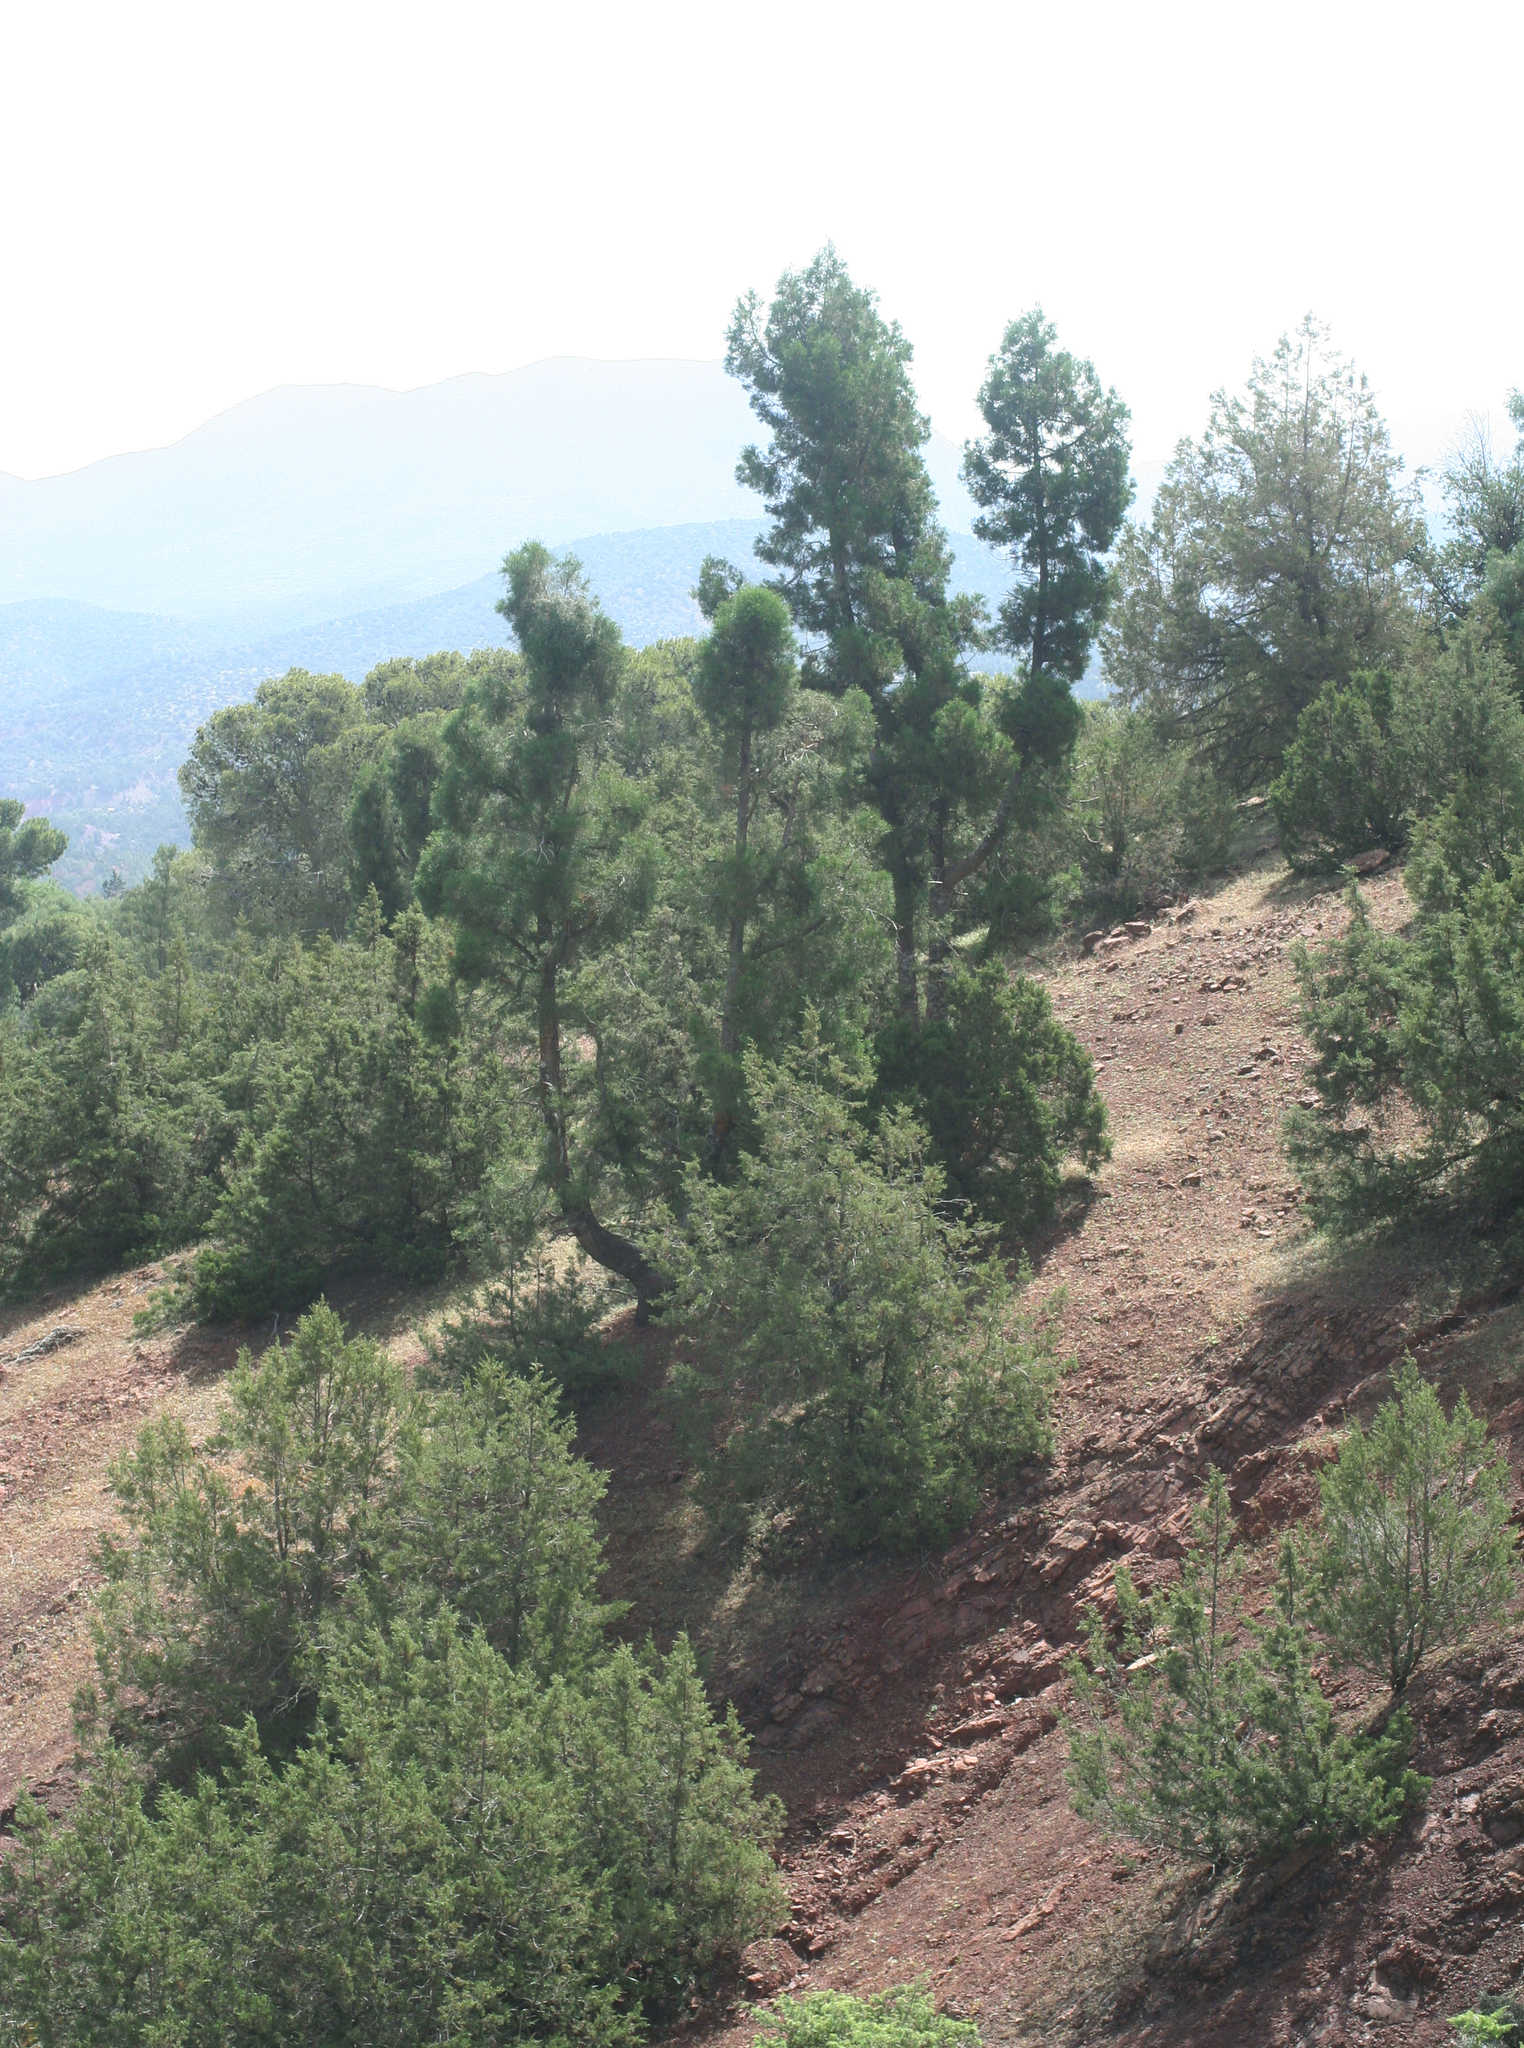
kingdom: Plantae
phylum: Tracheophyta
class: Pinopsida
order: Pinales
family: Cupressaceae
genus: Juniperus
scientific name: Juniperus phoenicea
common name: Phoenician juniper
